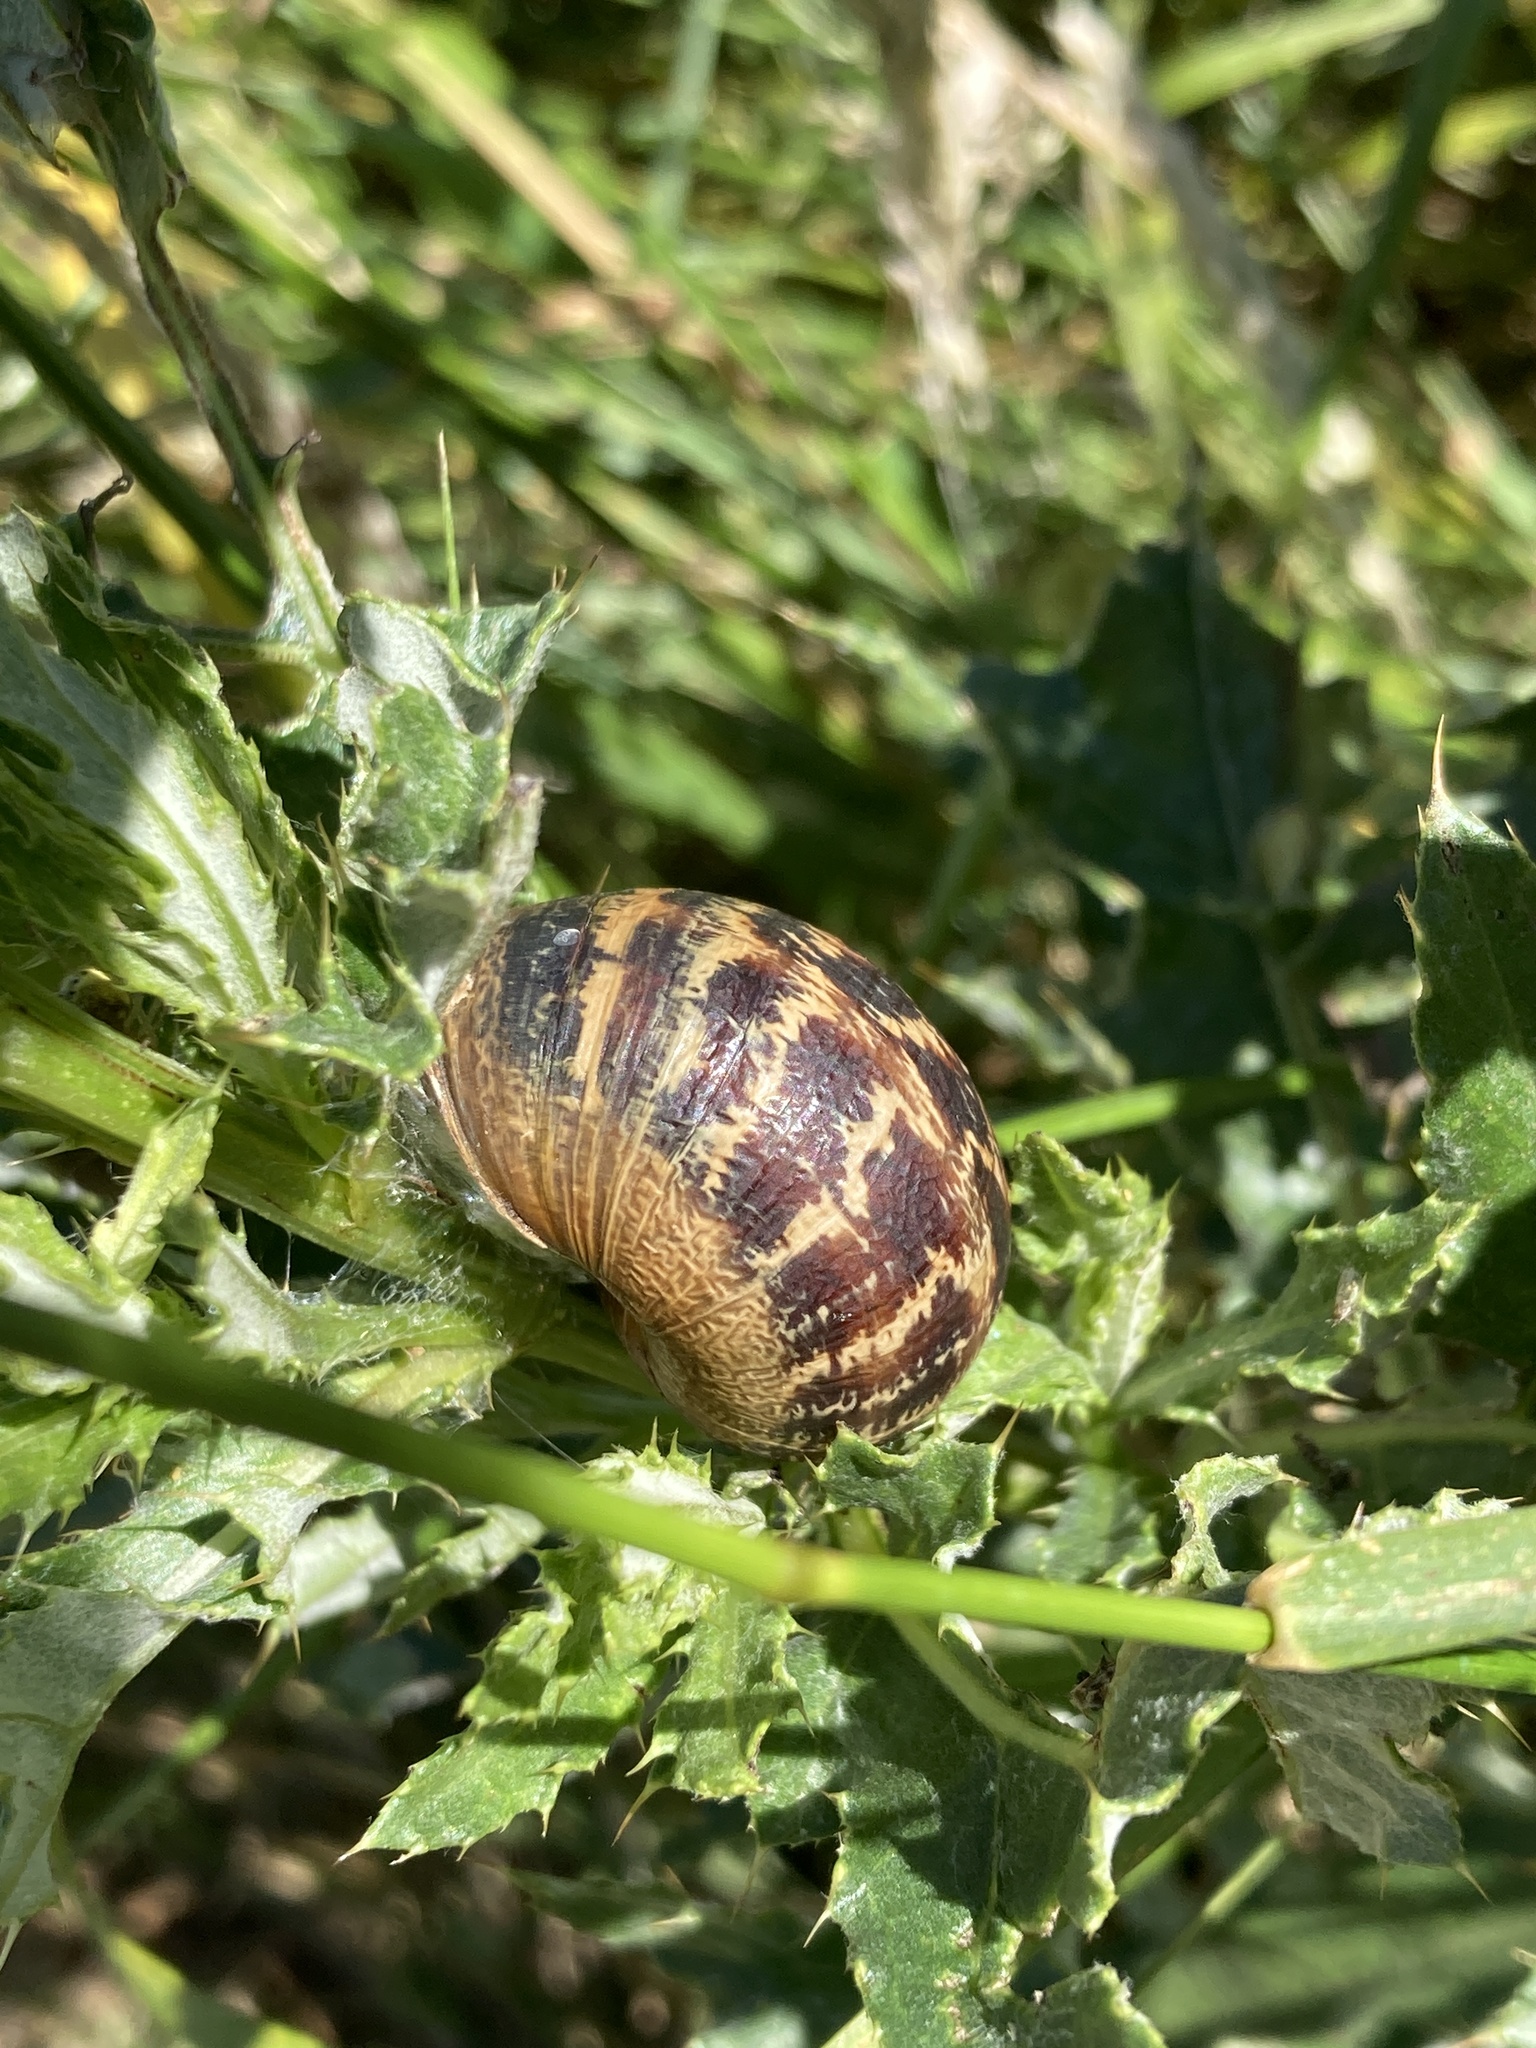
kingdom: Animalia
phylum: Mollusca
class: Gastropoda
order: Stylommatophora
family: Helicidae
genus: Cornu
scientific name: Cornu aspersum
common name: Brown garden snail
